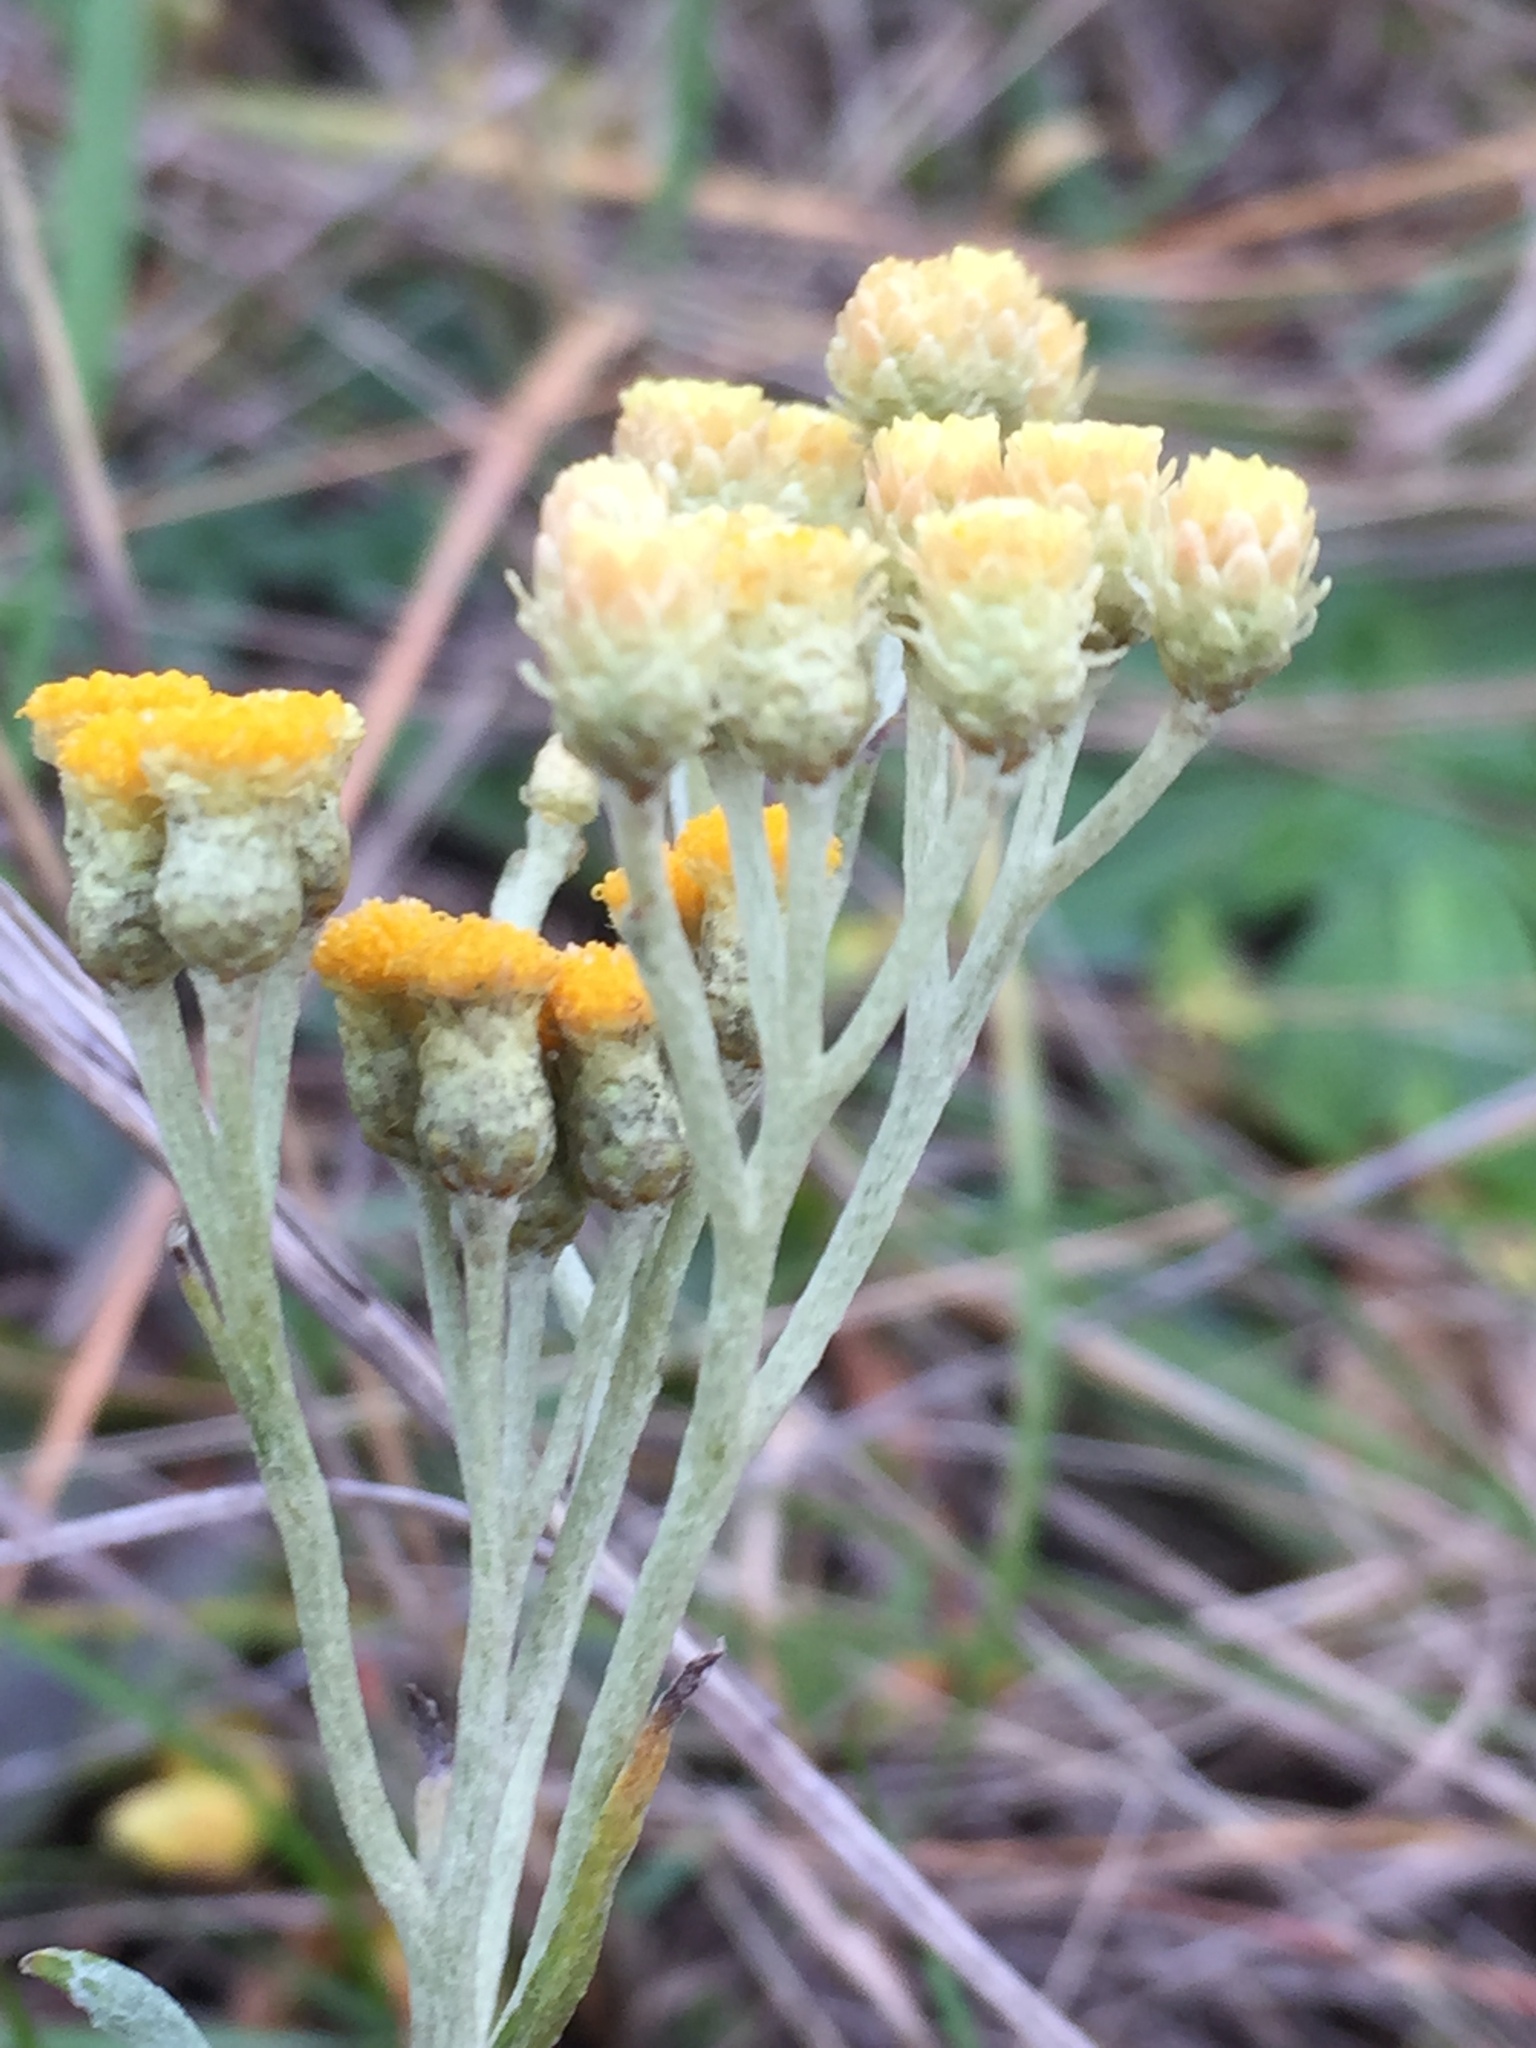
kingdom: Plantae
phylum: Tracheophyta
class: Magnoliopsida
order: Asterales
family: Asteraceae
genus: Helichrysum
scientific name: Helichrysum arenarium
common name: Strawflower
